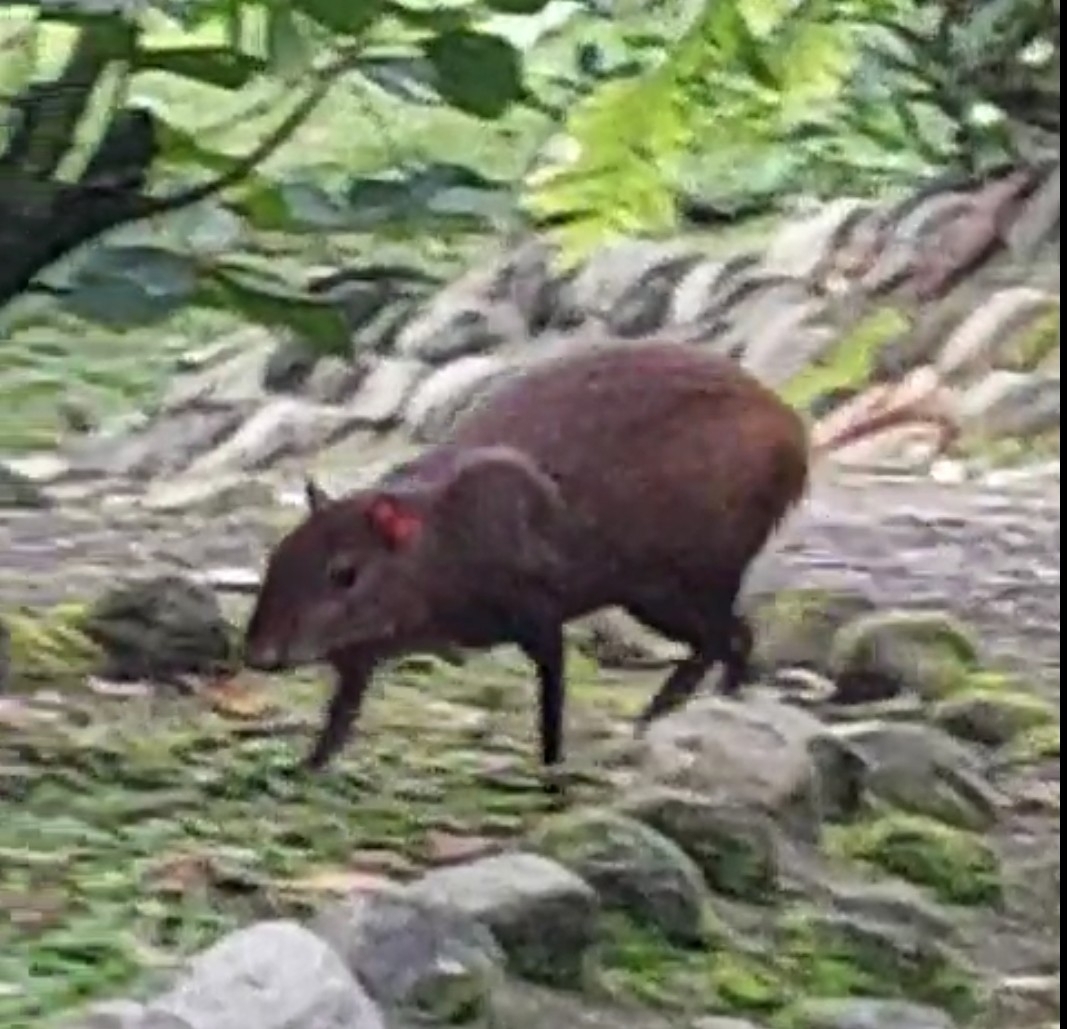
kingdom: Animalia
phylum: Chordata
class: Mammalia
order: Rodentia
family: Dasyproctidae
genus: Dasyprocta
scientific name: Dasyprocta punctata
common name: Central american agouti
